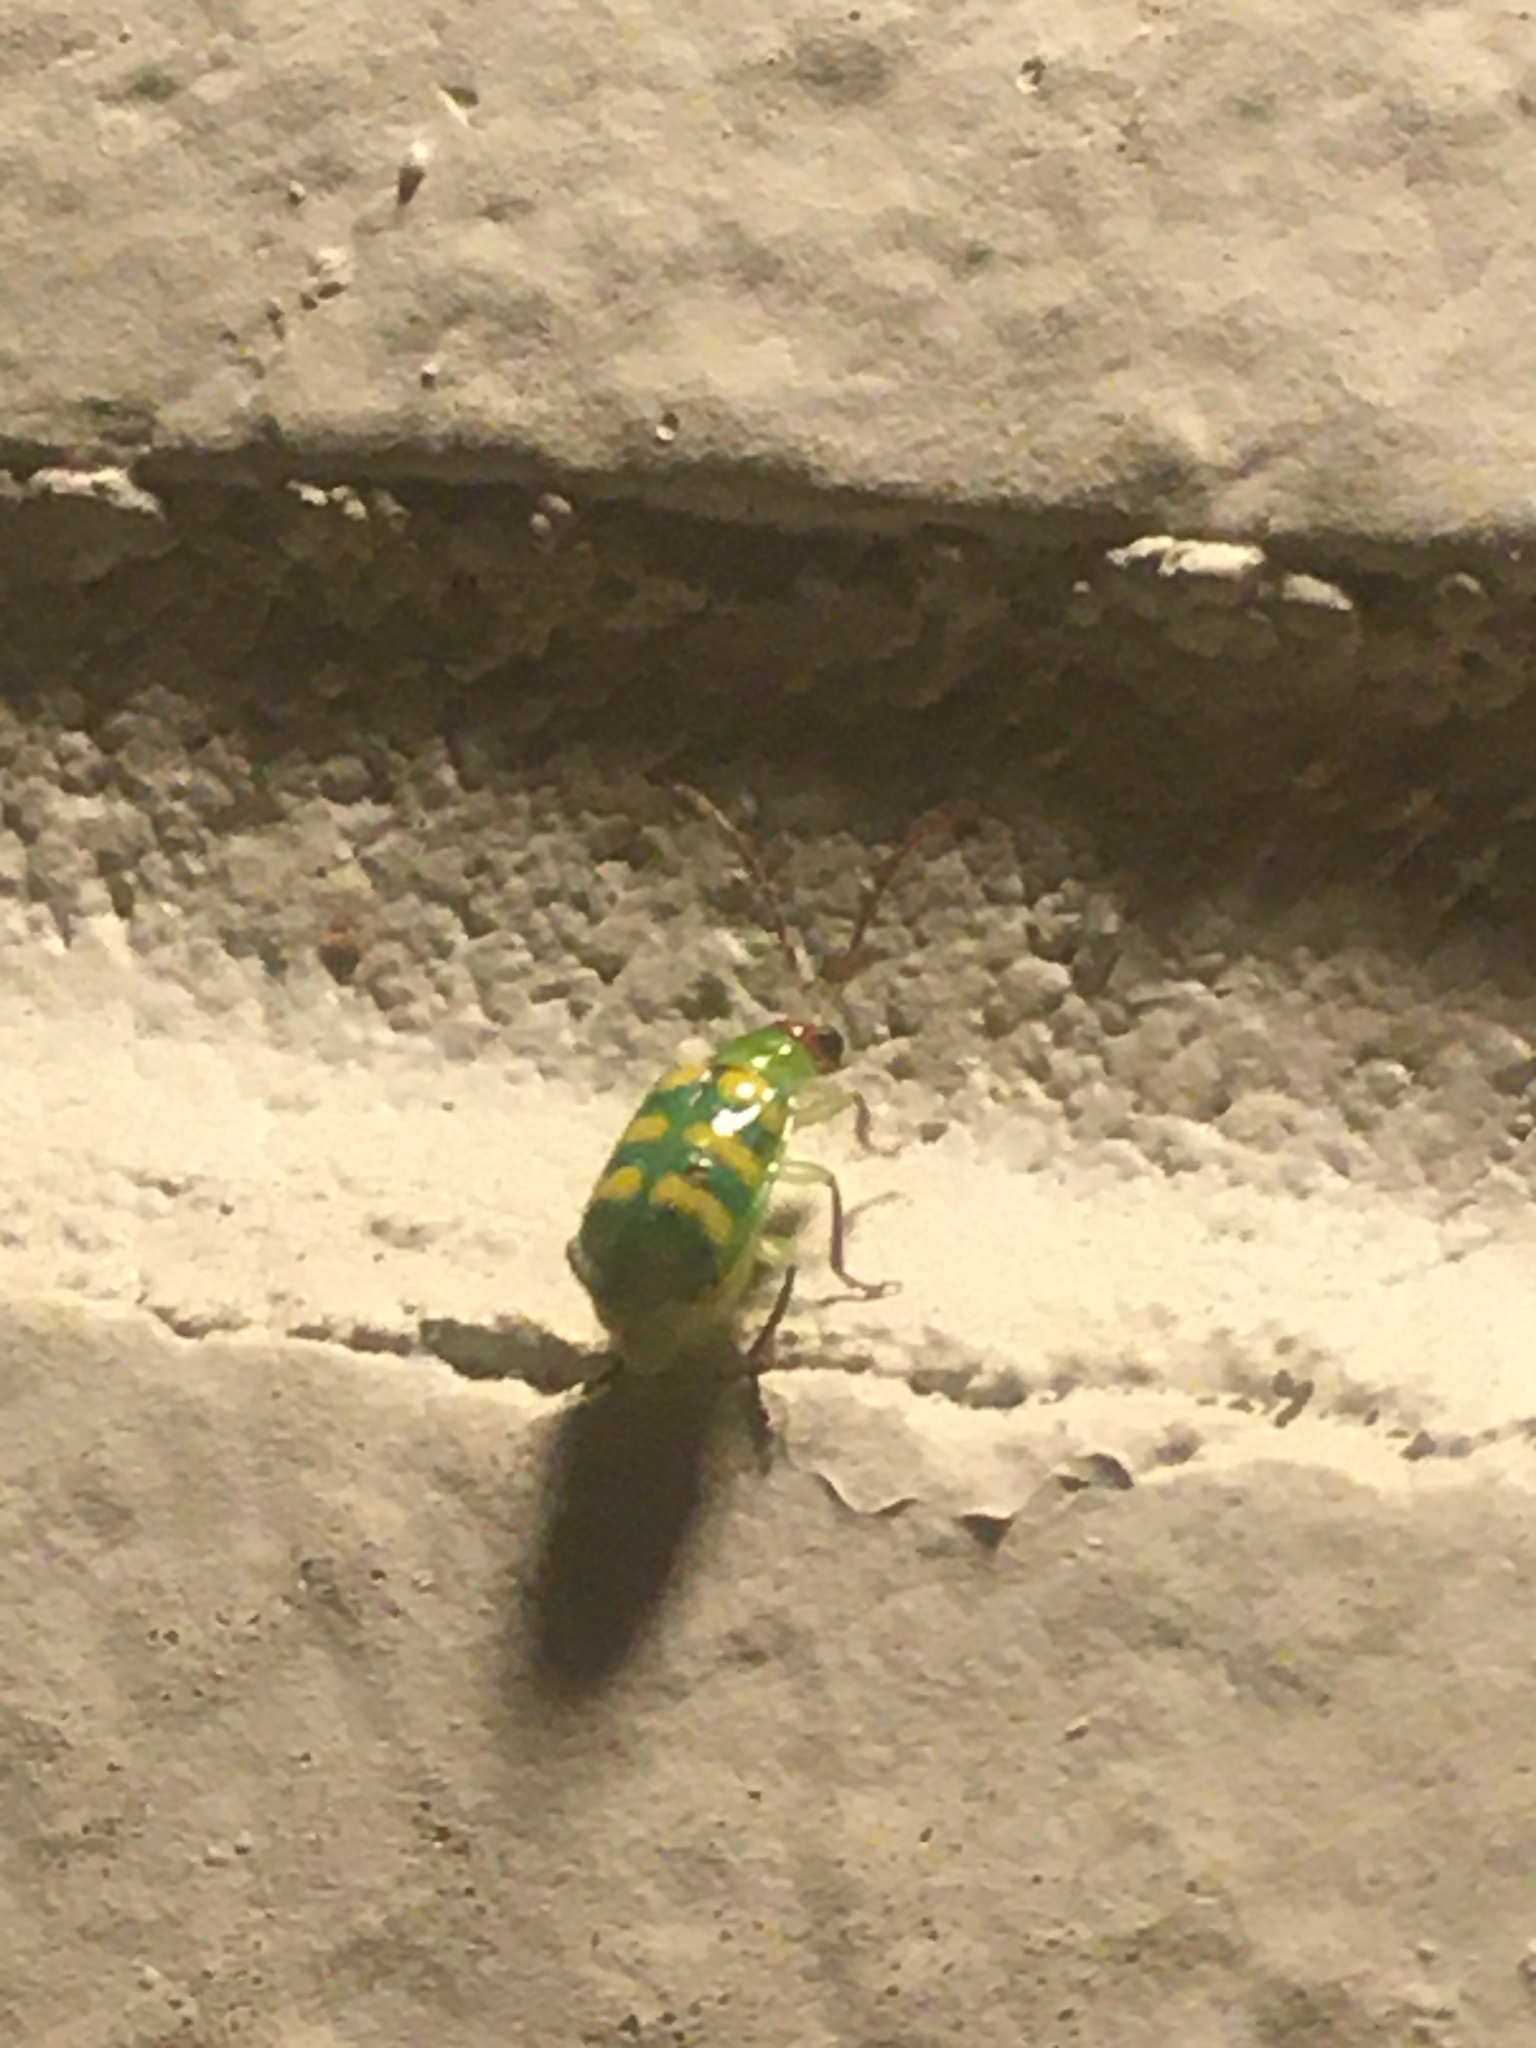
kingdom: Animalia
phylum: Arthropoda
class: Insecta
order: Coleoptera
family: Chrysomelidae
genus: Diabrotica
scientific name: Diabrotica balteata
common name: Leaf beetle
